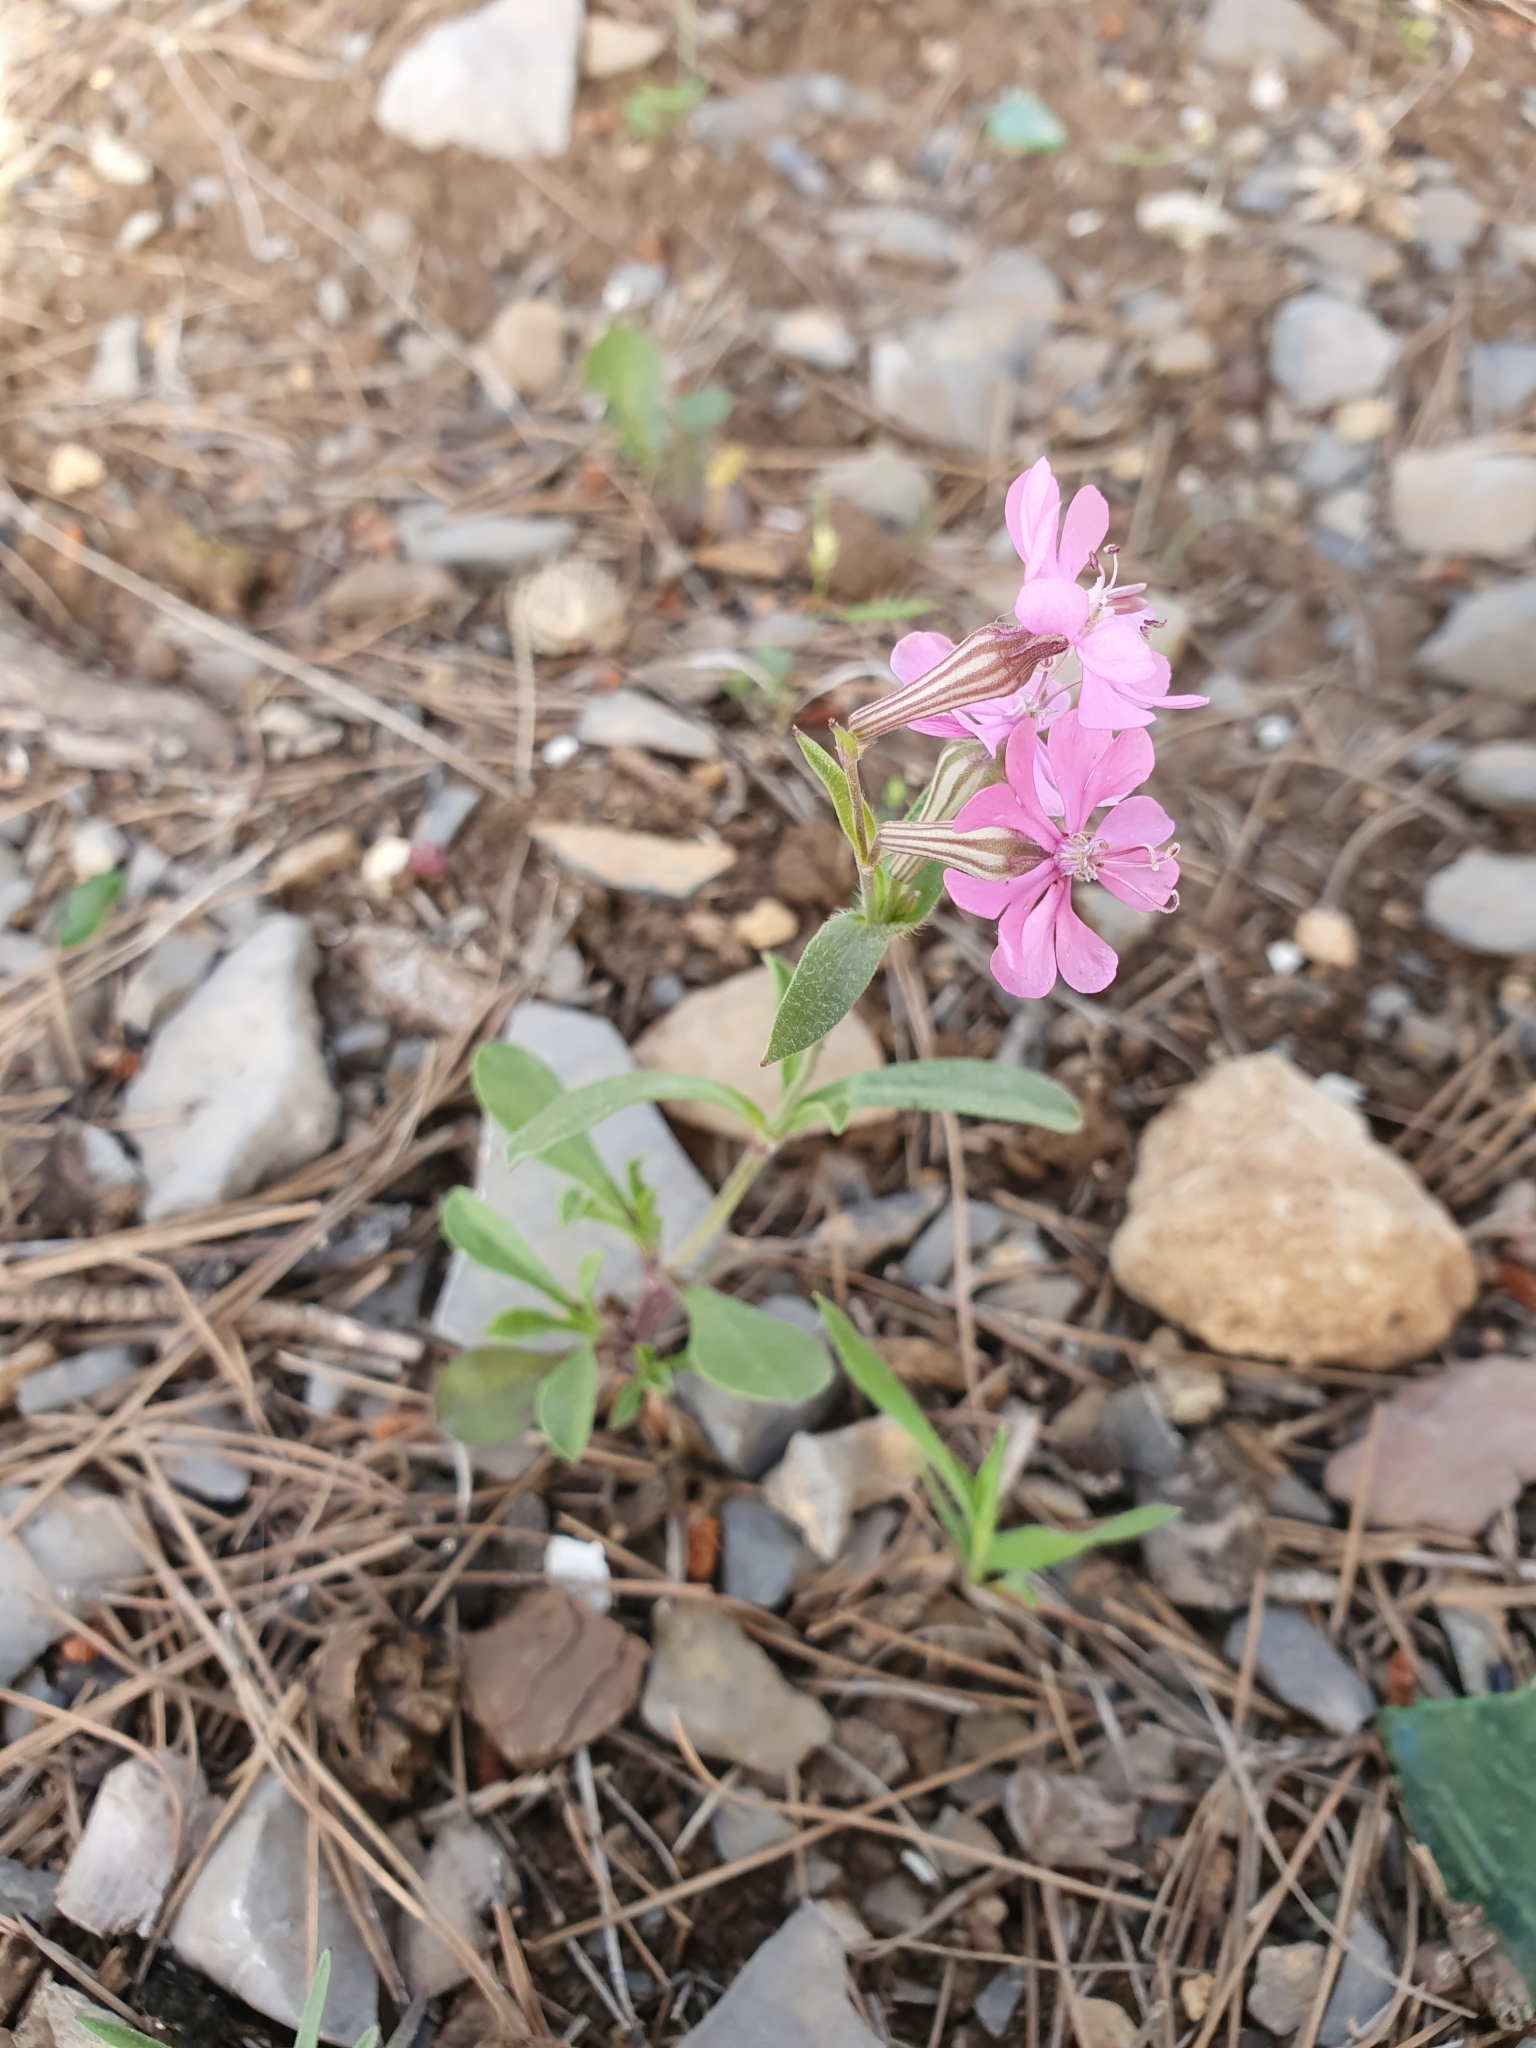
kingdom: Plantae
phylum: Tracheophyta
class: Magnoliopsida
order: Caryophyllales
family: Caryophyllaceae
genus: Silene
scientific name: Silene colorata
